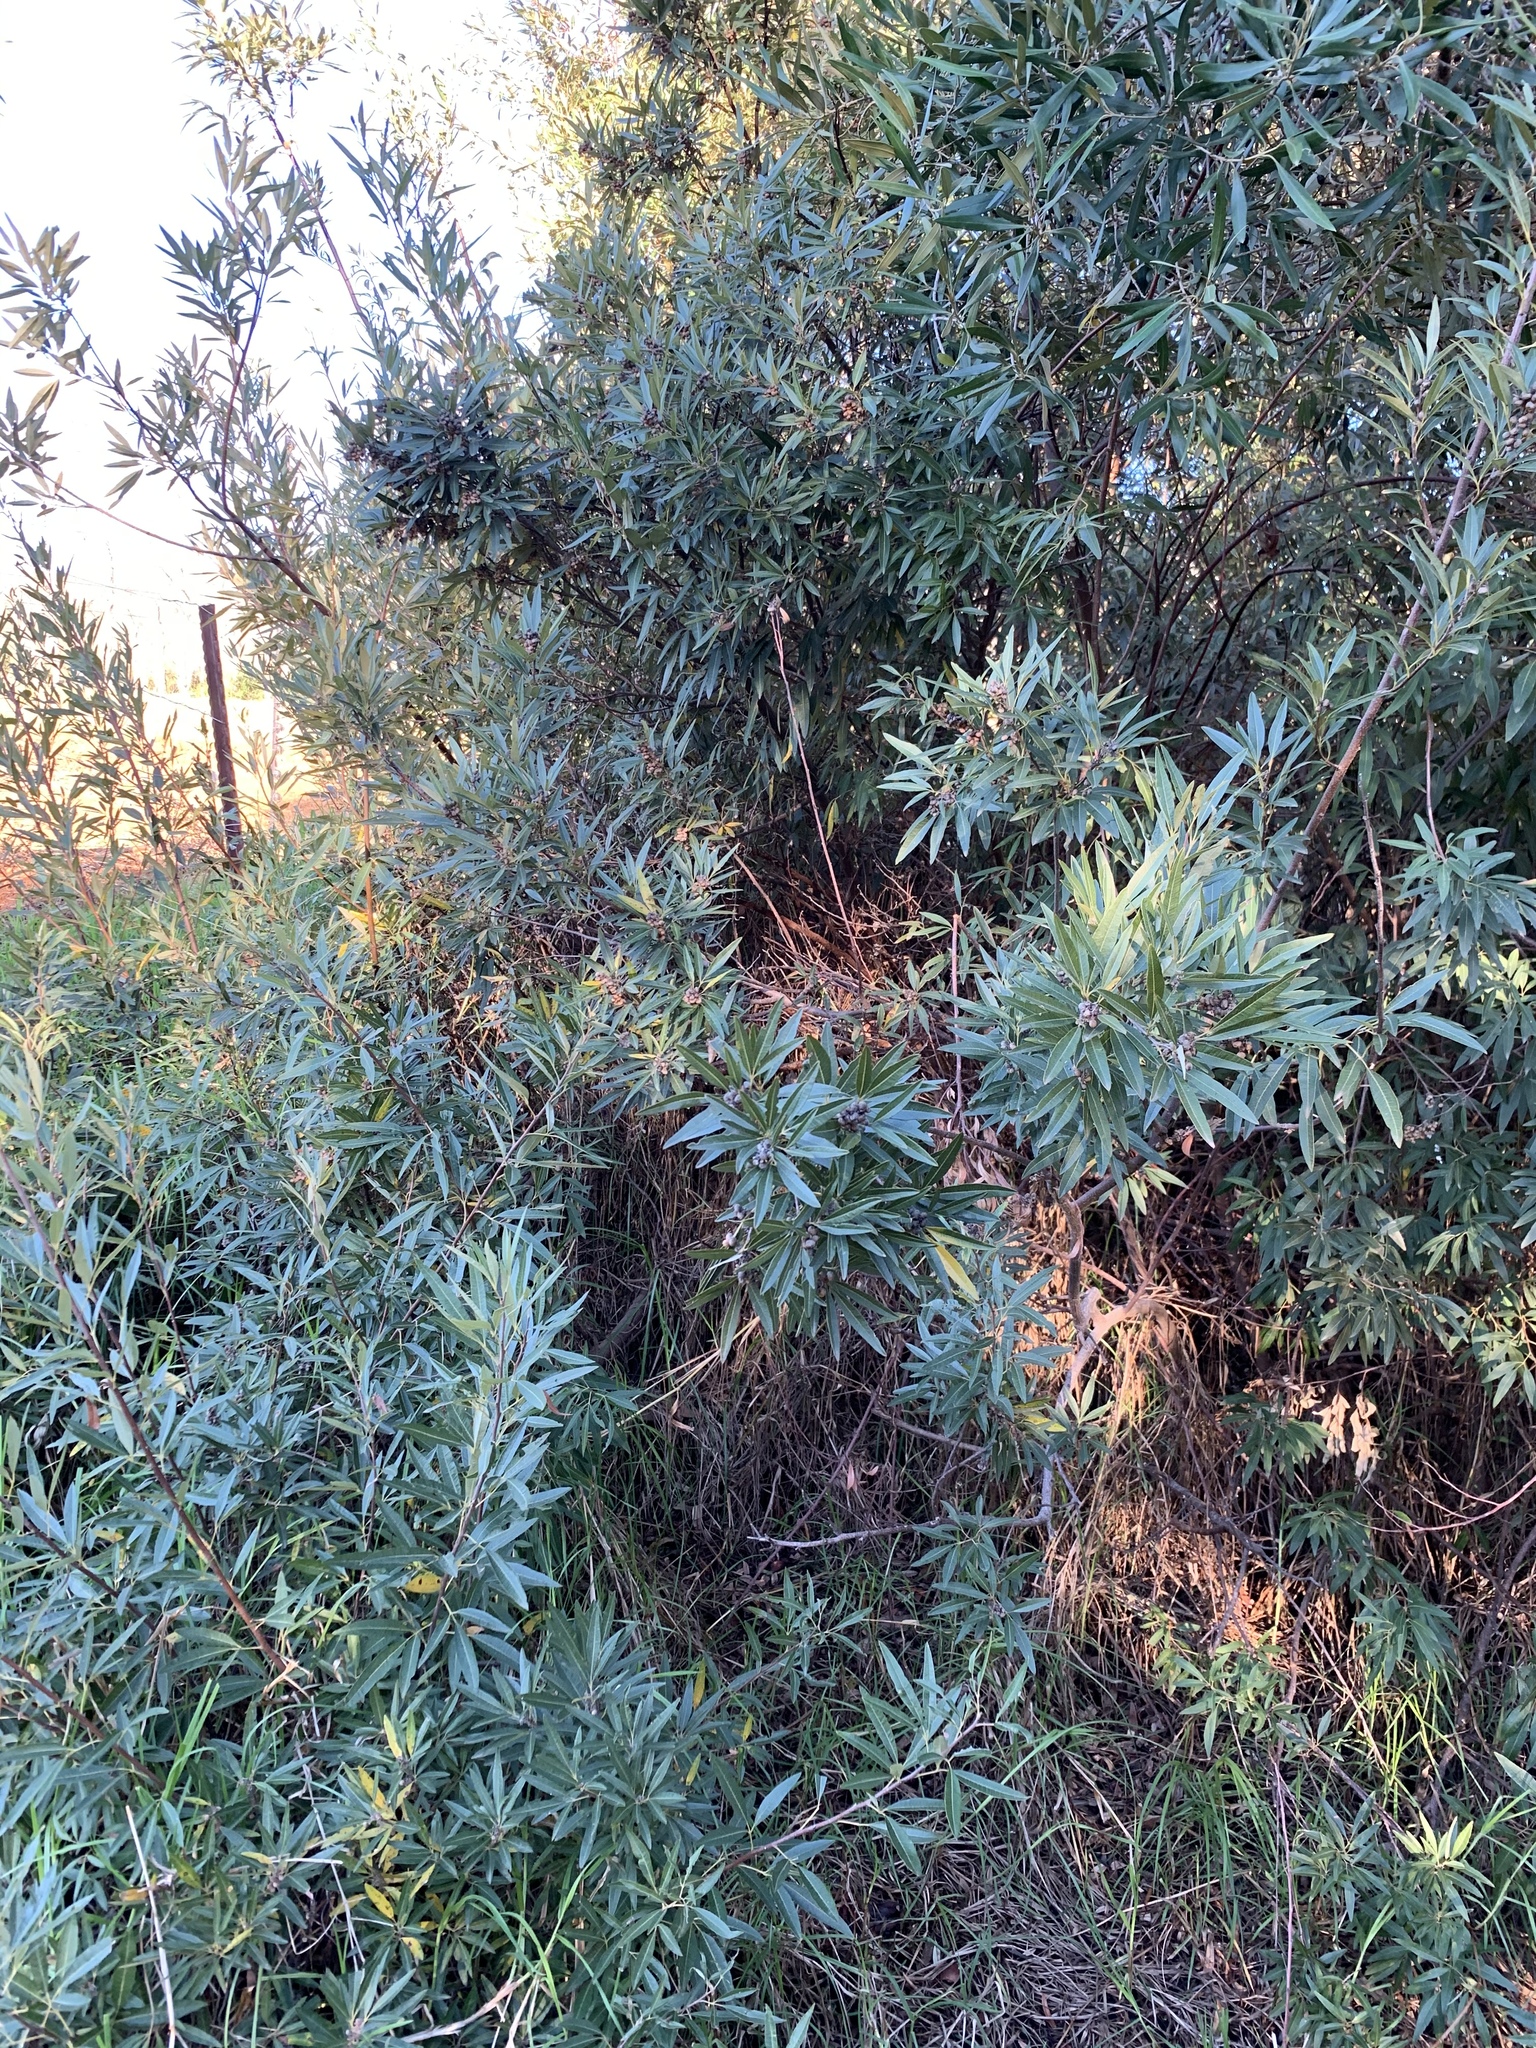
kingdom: Plantae
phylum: Tracheophyta
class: Magnoliopsida
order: Sapindales
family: Anacardiaceae
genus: Searsia
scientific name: Searsia angustifolia
